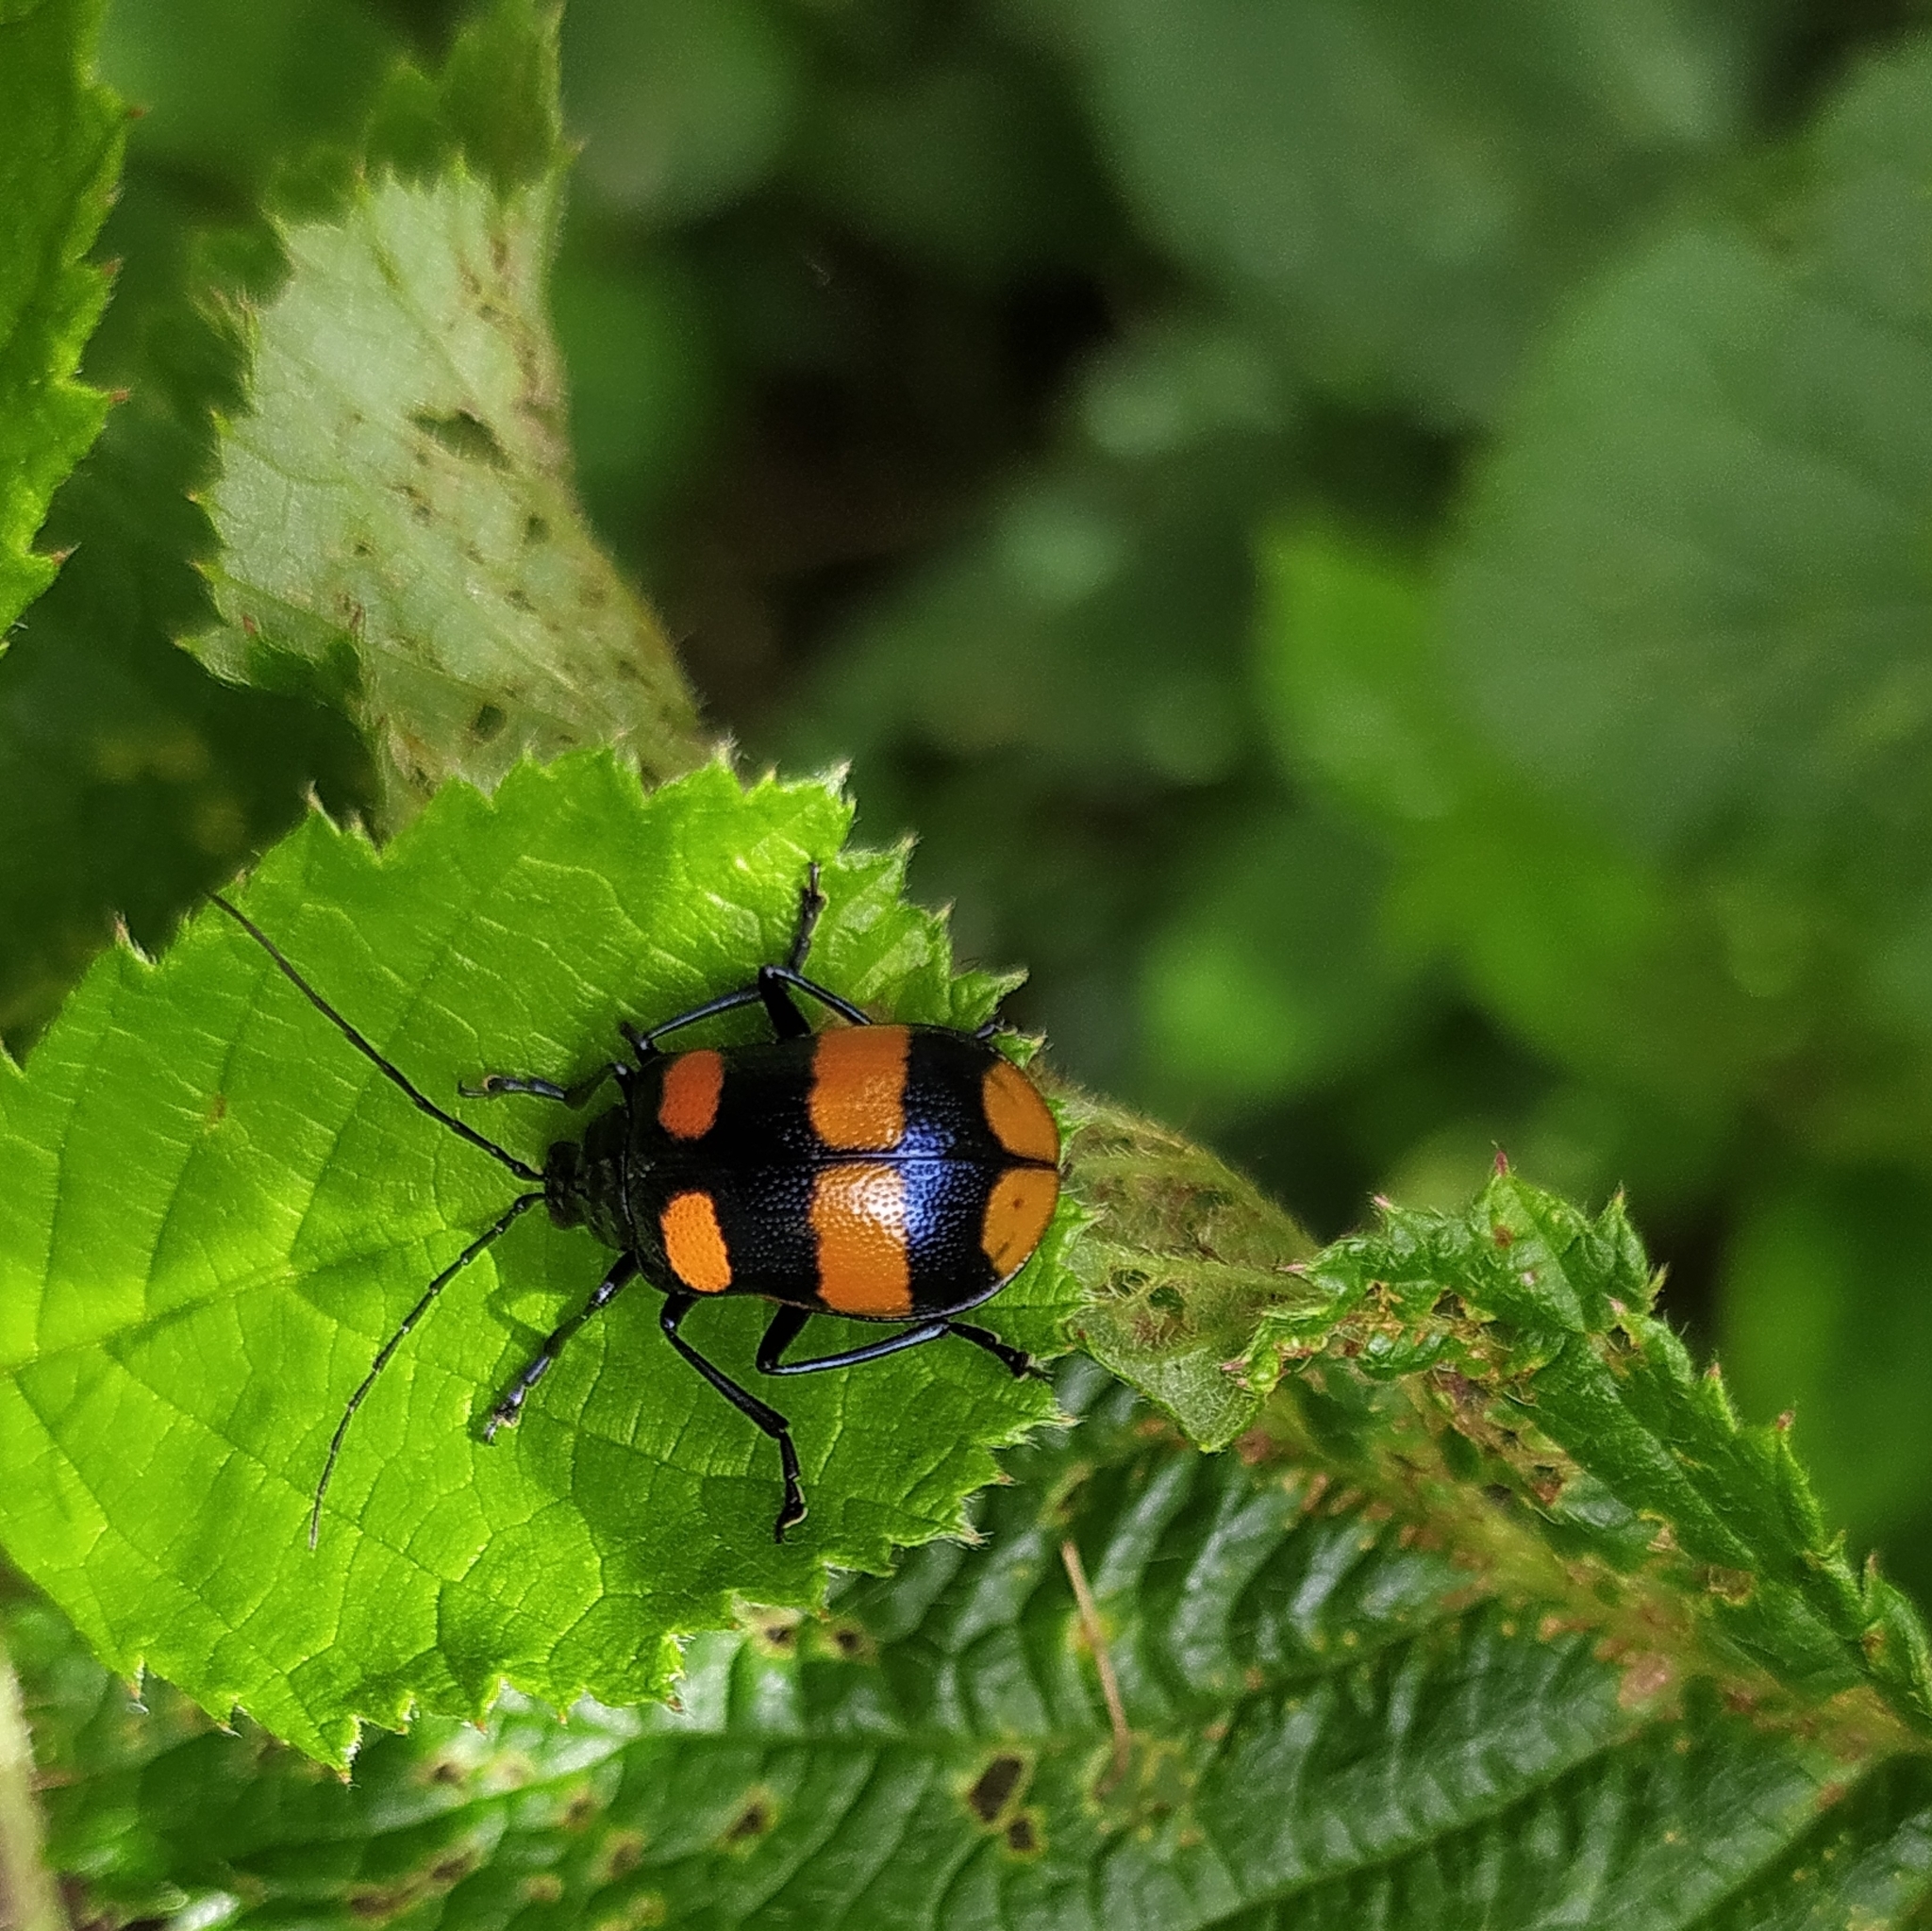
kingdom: Animalia
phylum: Arthropoda
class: Insecta
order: Coleoptera
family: Chrysomelidae
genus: Meristata
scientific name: Meristata
